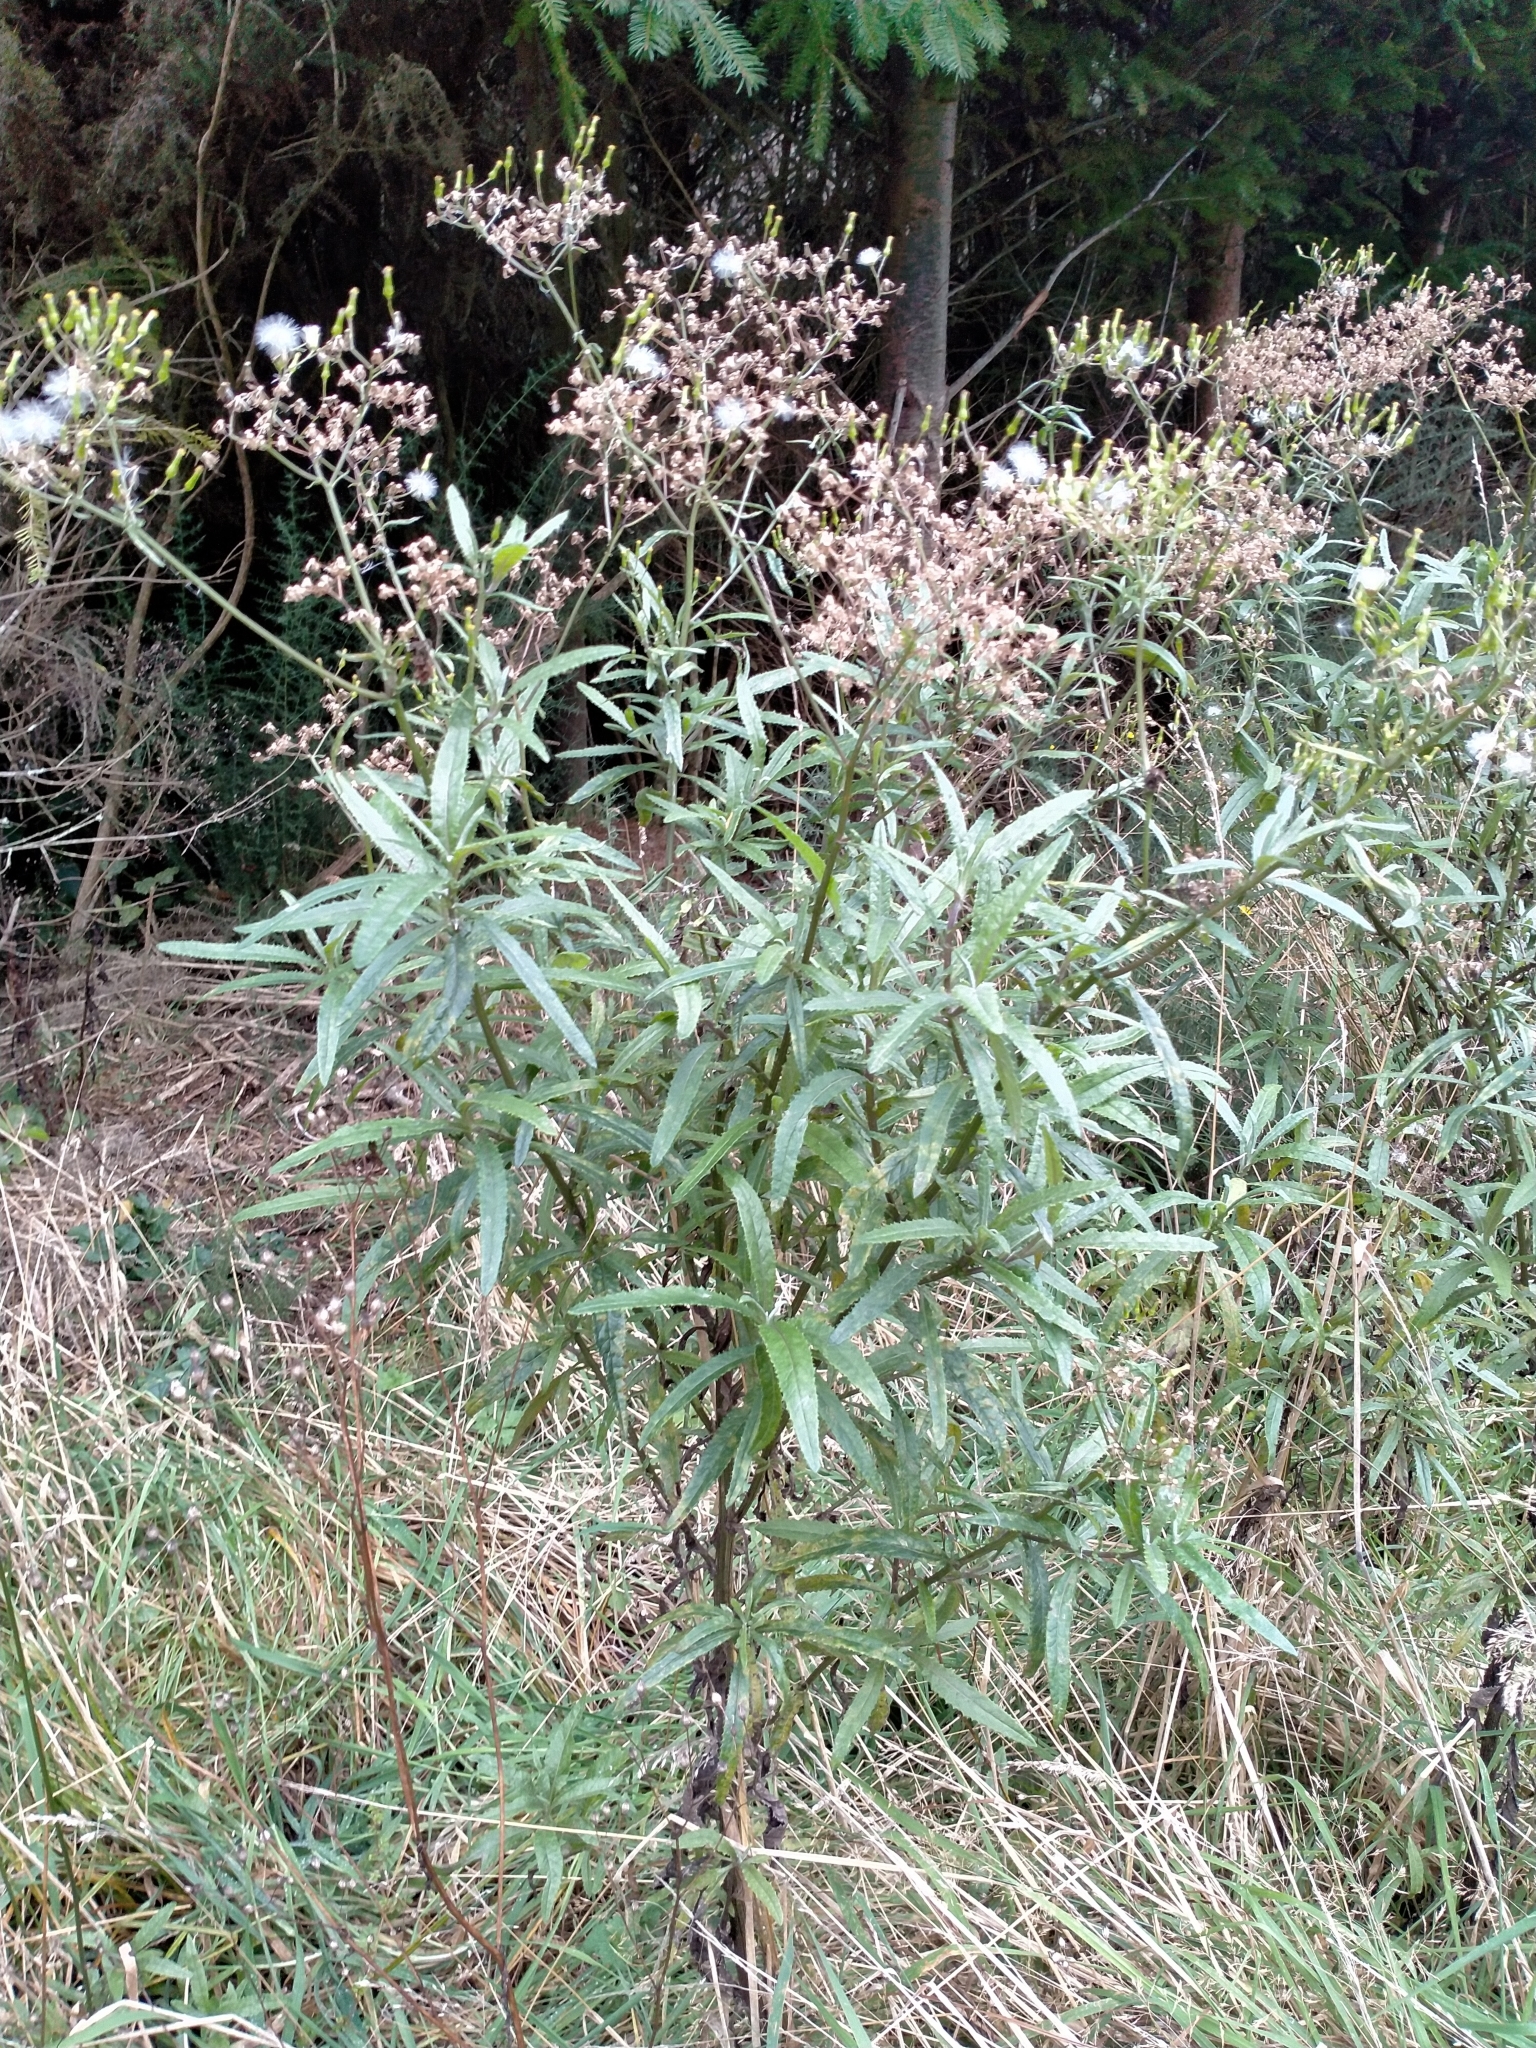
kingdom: Plantae
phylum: Tracheophyta
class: Magnoliopsida
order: Asterales
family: Asteraceae
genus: Senecio
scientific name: Senecio minimus
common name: Toothed fireweed
